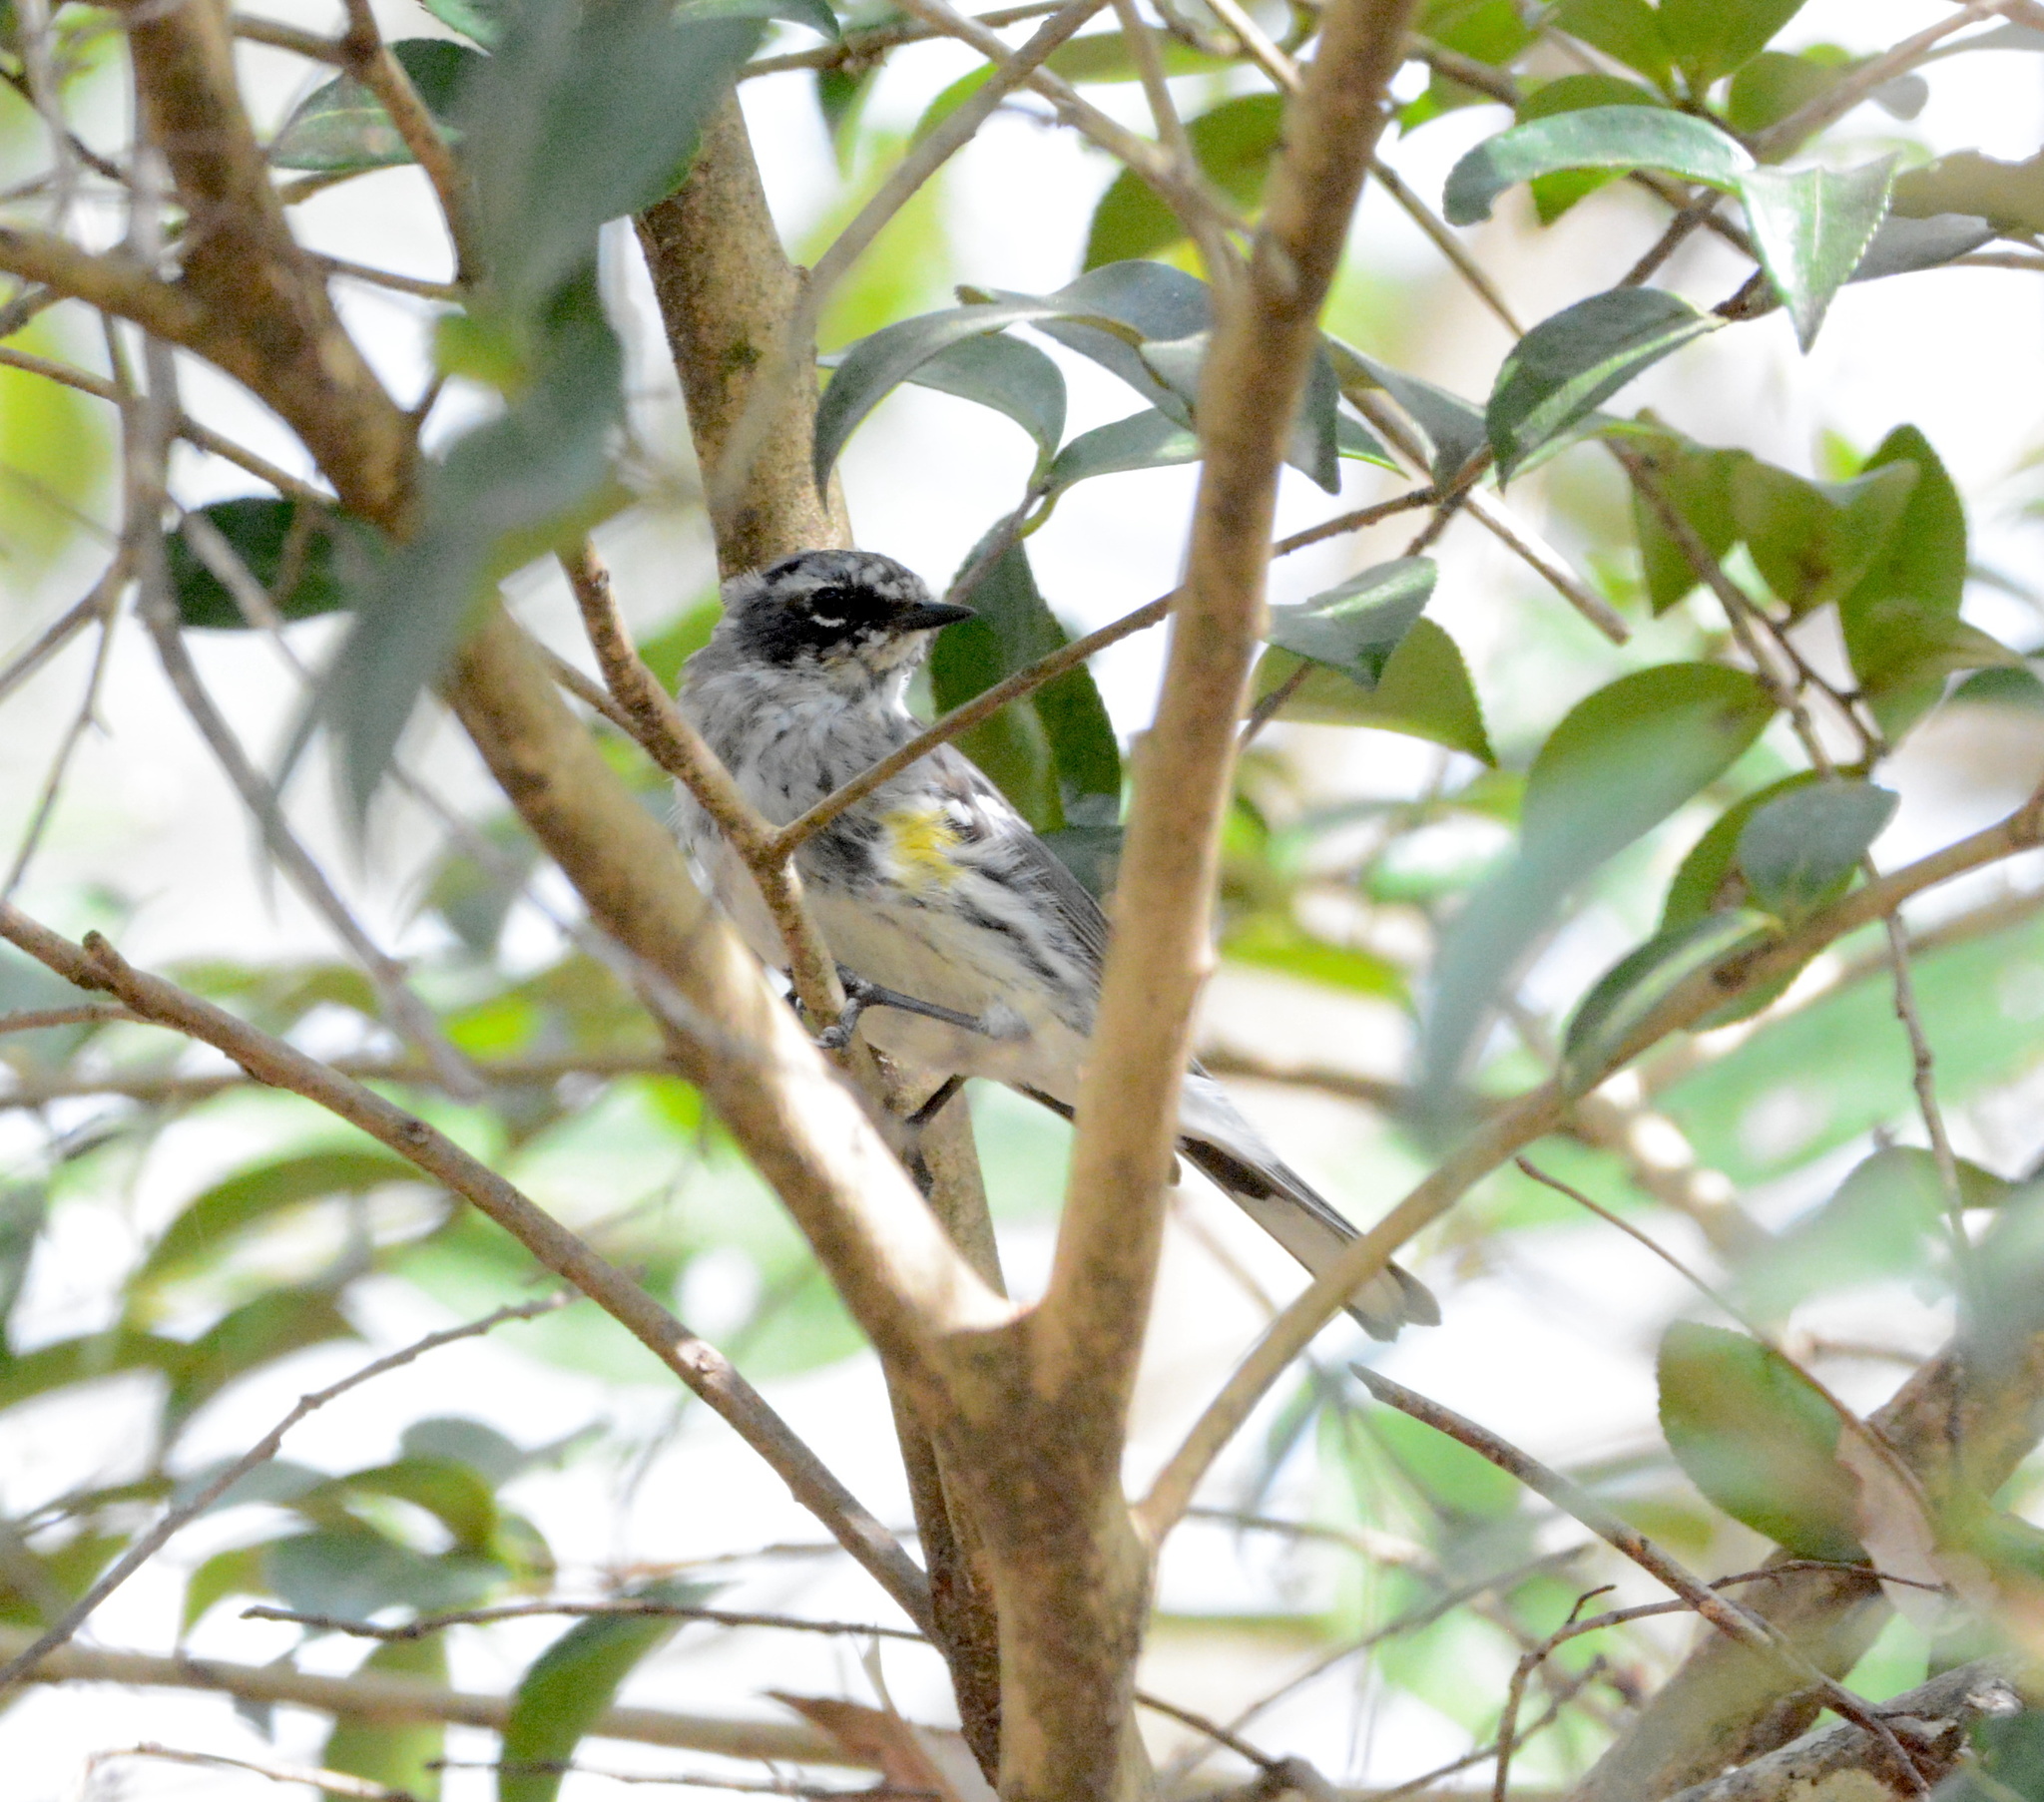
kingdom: Animalia
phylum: Chordata
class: Aves
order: Passeriformes
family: Parulidae
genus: Setophaga
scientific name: Setophaga coronata
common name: Myrtle warbler
